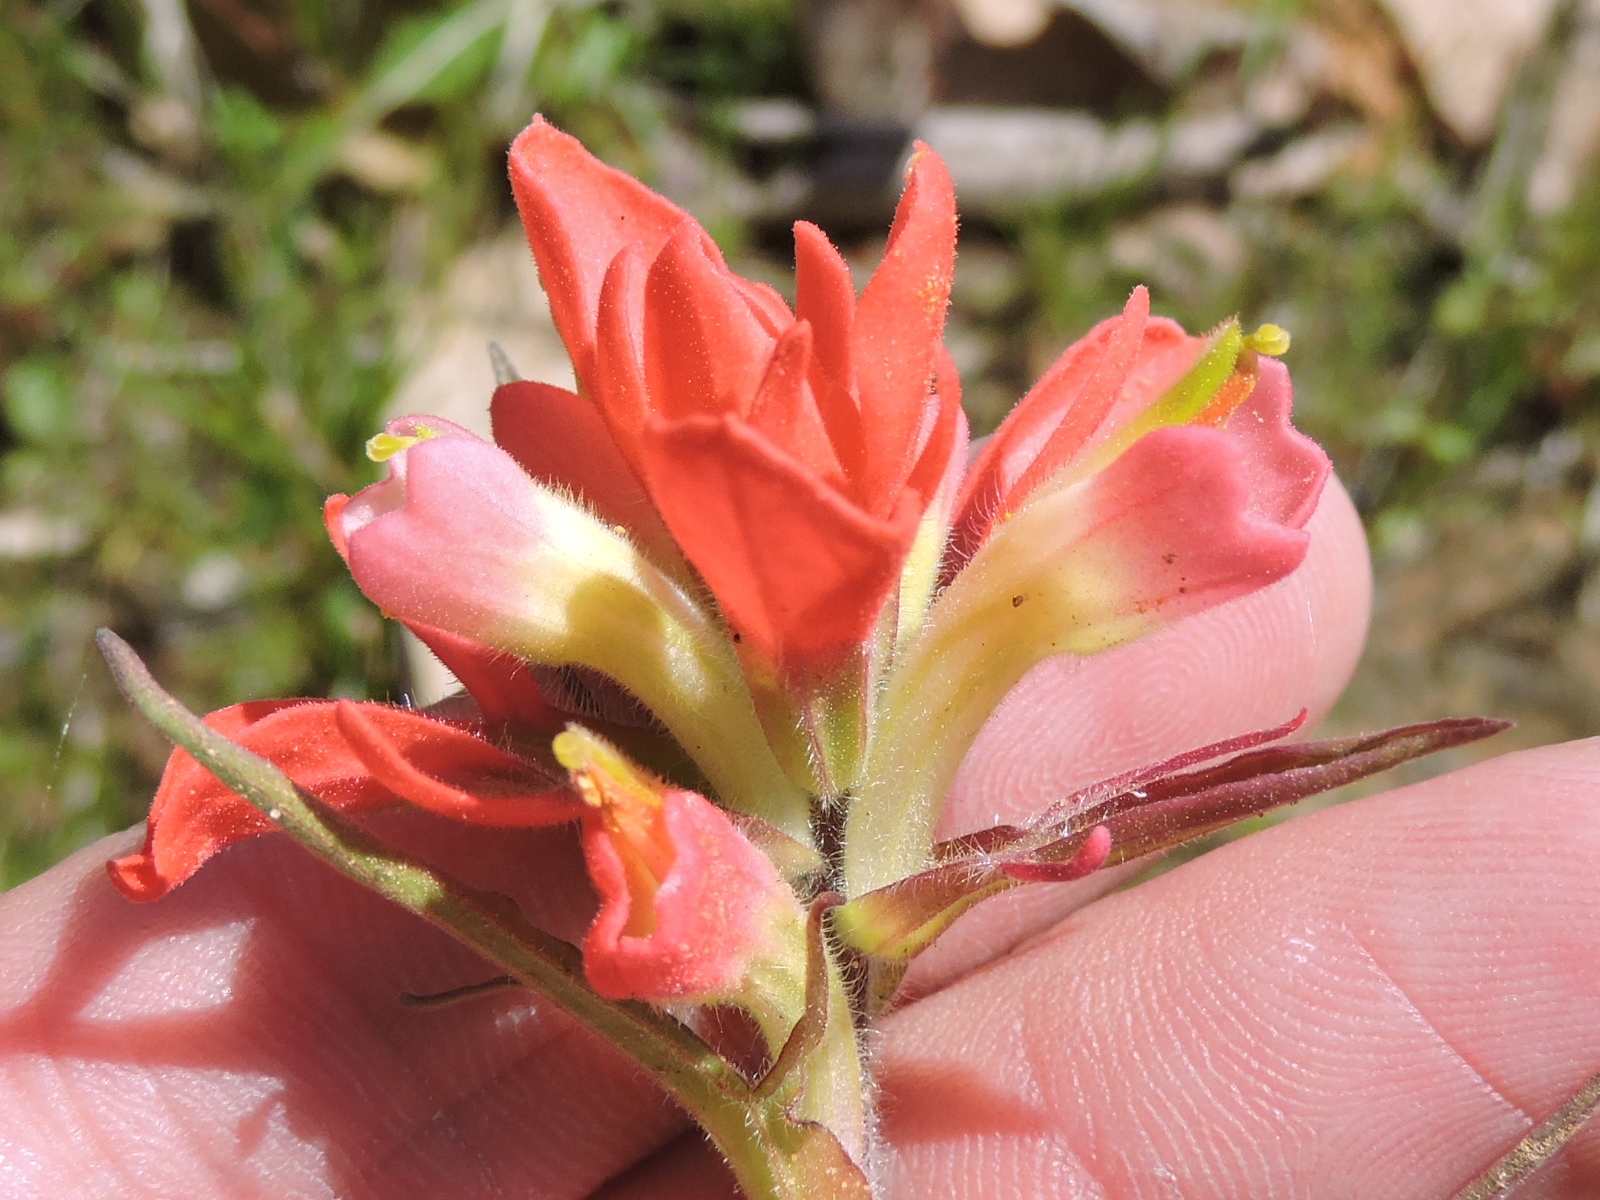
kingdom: Plantae
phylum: Tracheophyta
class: Magnoliopsida
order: Lamiales
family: Orobanchaceae
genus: Castilleja
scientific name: Castilleja indivisa
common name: Texas paintbrush
